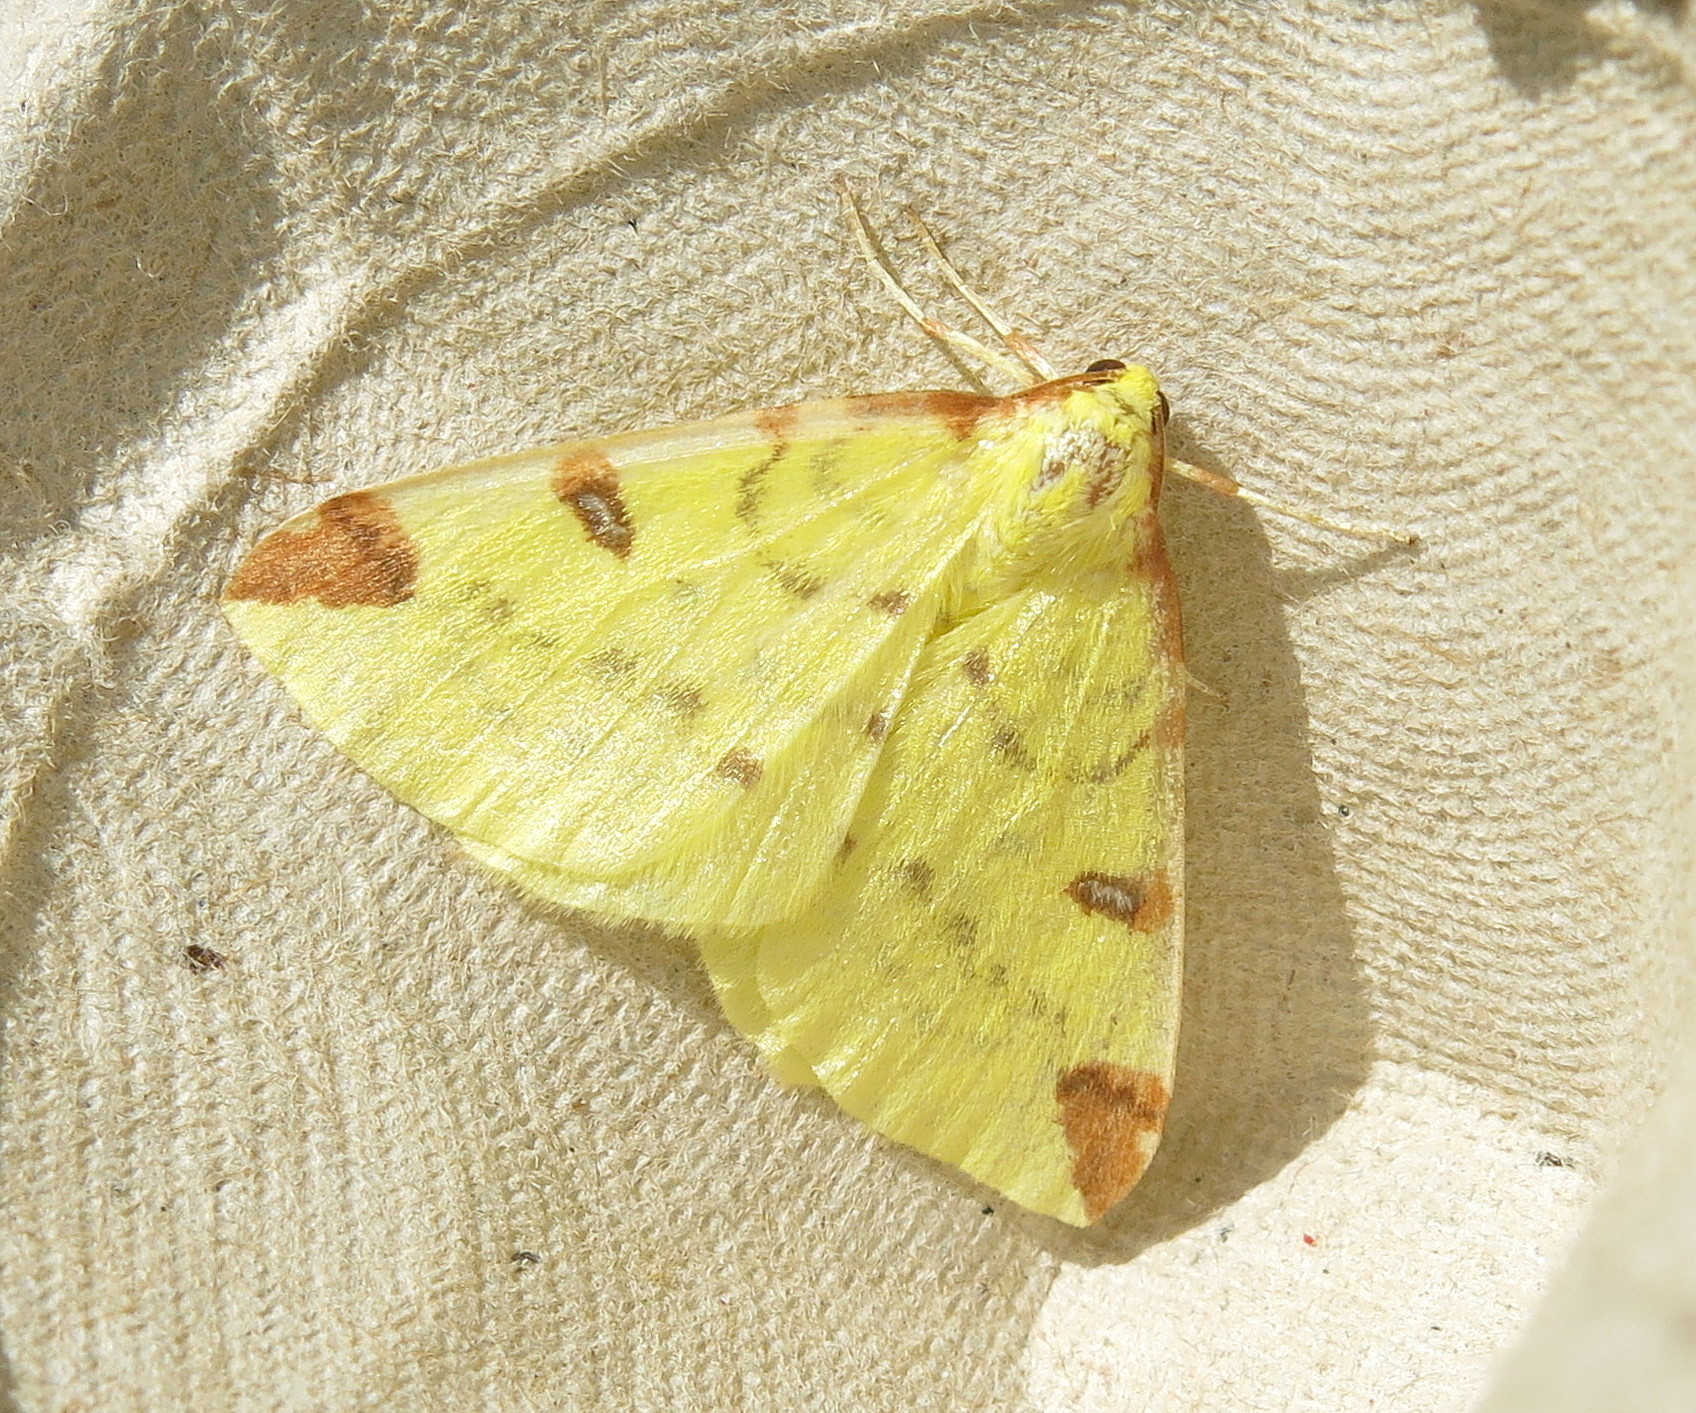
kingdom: Animalia
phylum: Arthropoda
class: Insecta
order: Lepidoptera
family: Geometridae
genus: Opisthograptis
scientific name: Opisthograptis luteolata
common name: Brimstone moth
